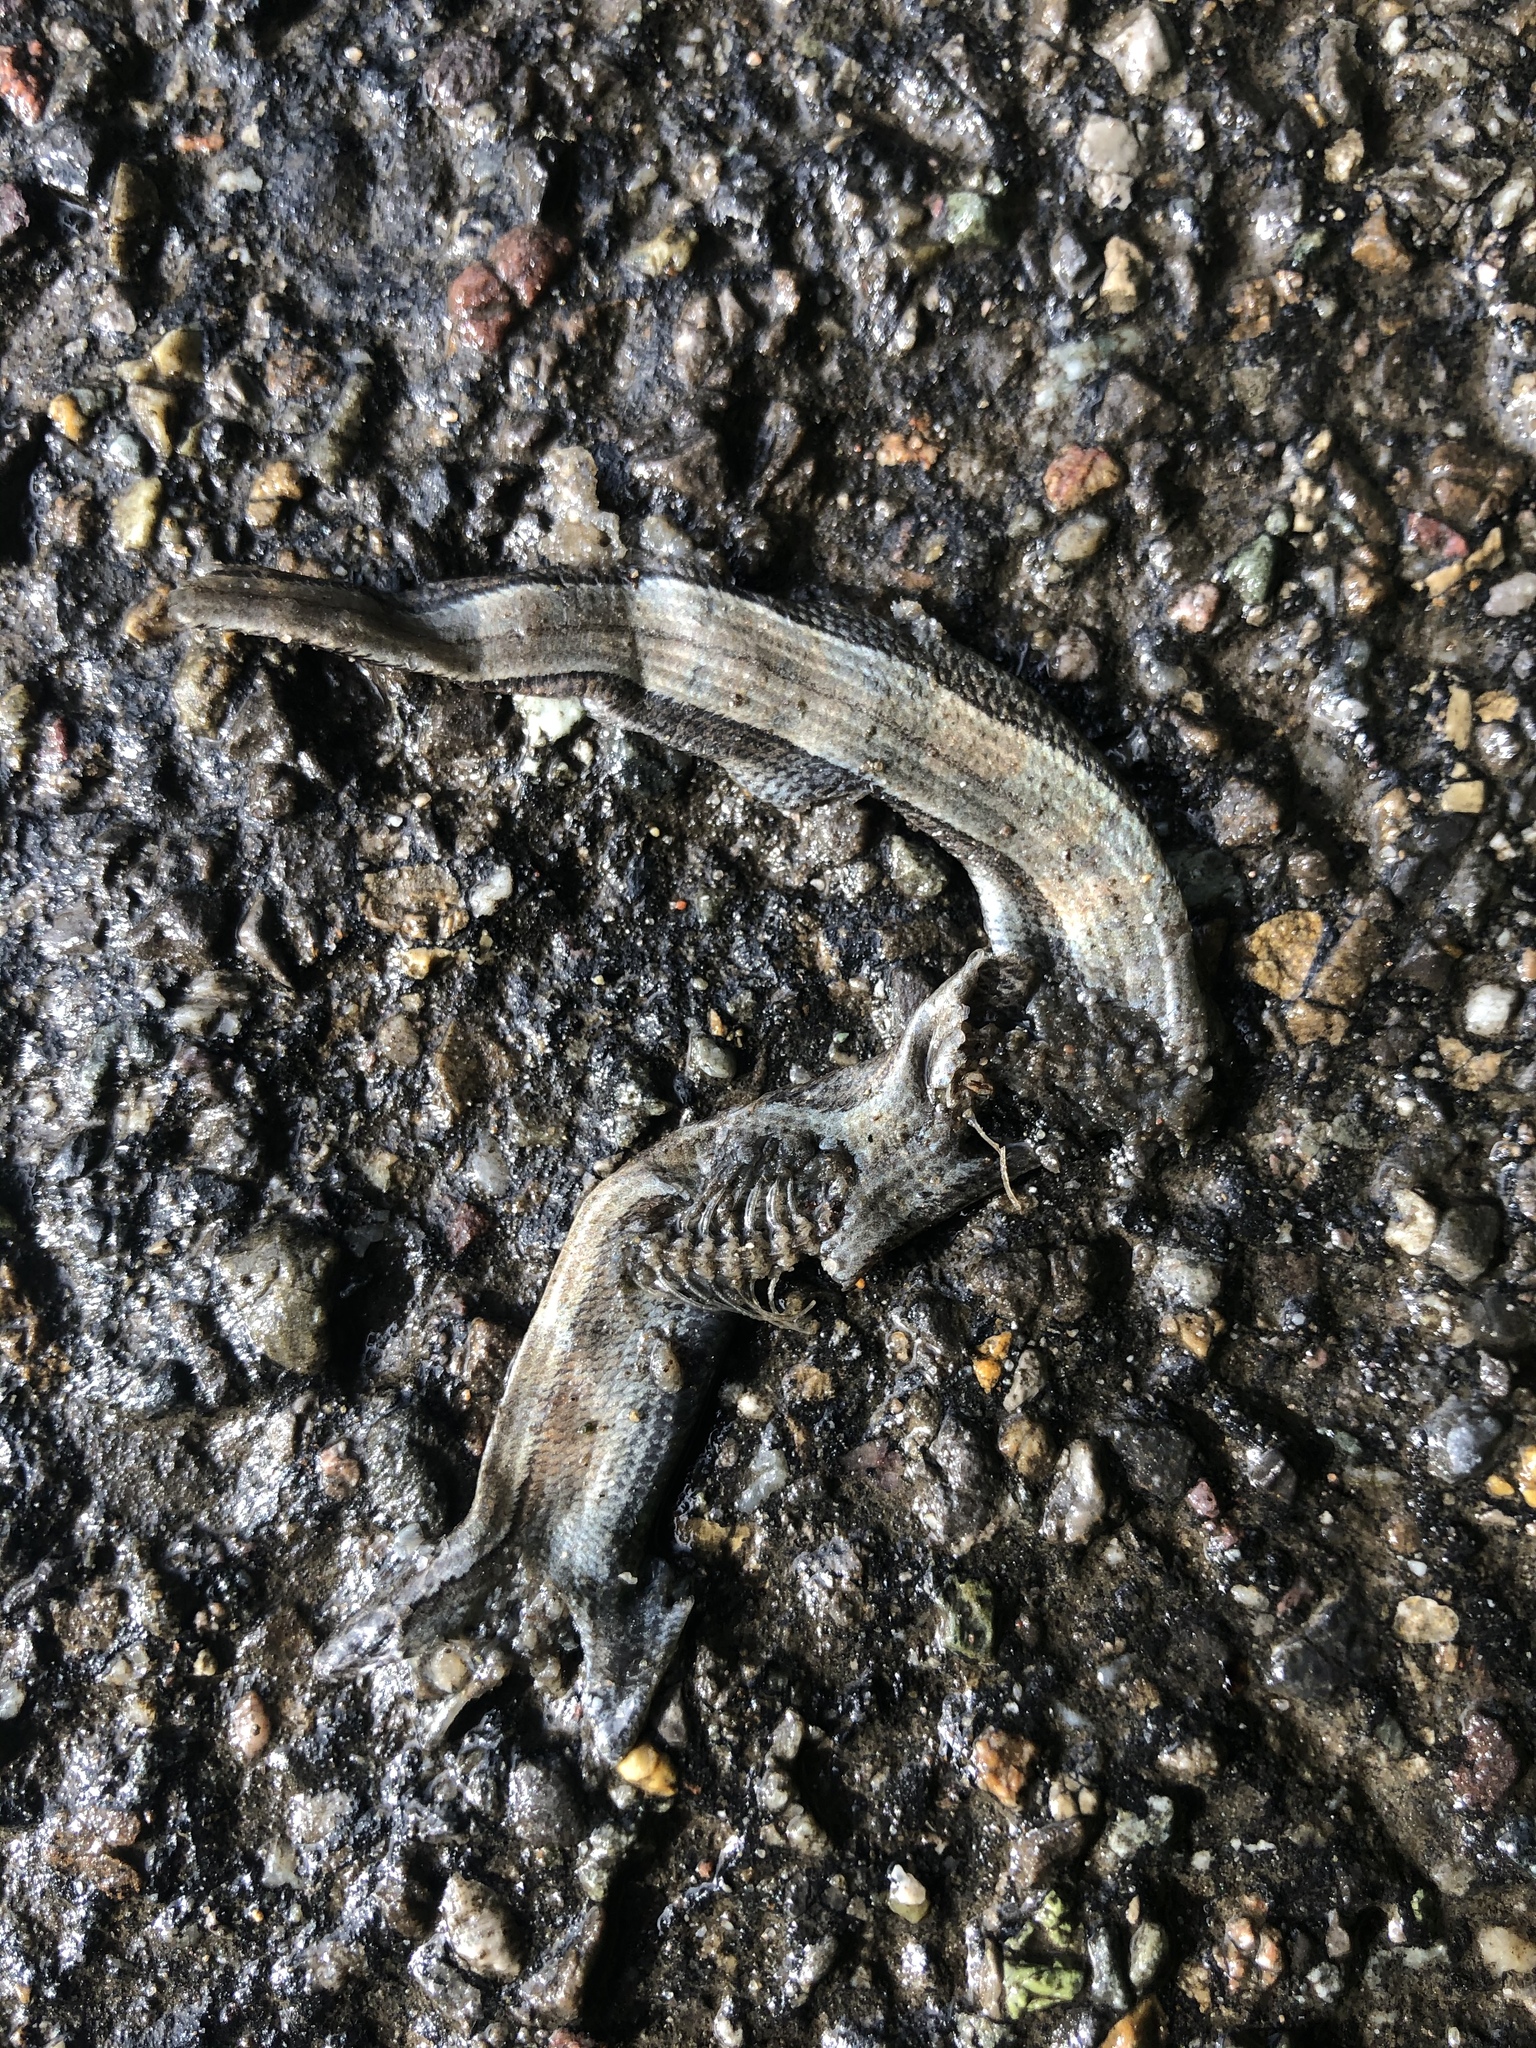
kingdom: Animalia
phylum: Chordata
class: Squamata
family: Anguidae
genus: Anguis
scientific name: Anguis fragilis
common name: Slow worm
